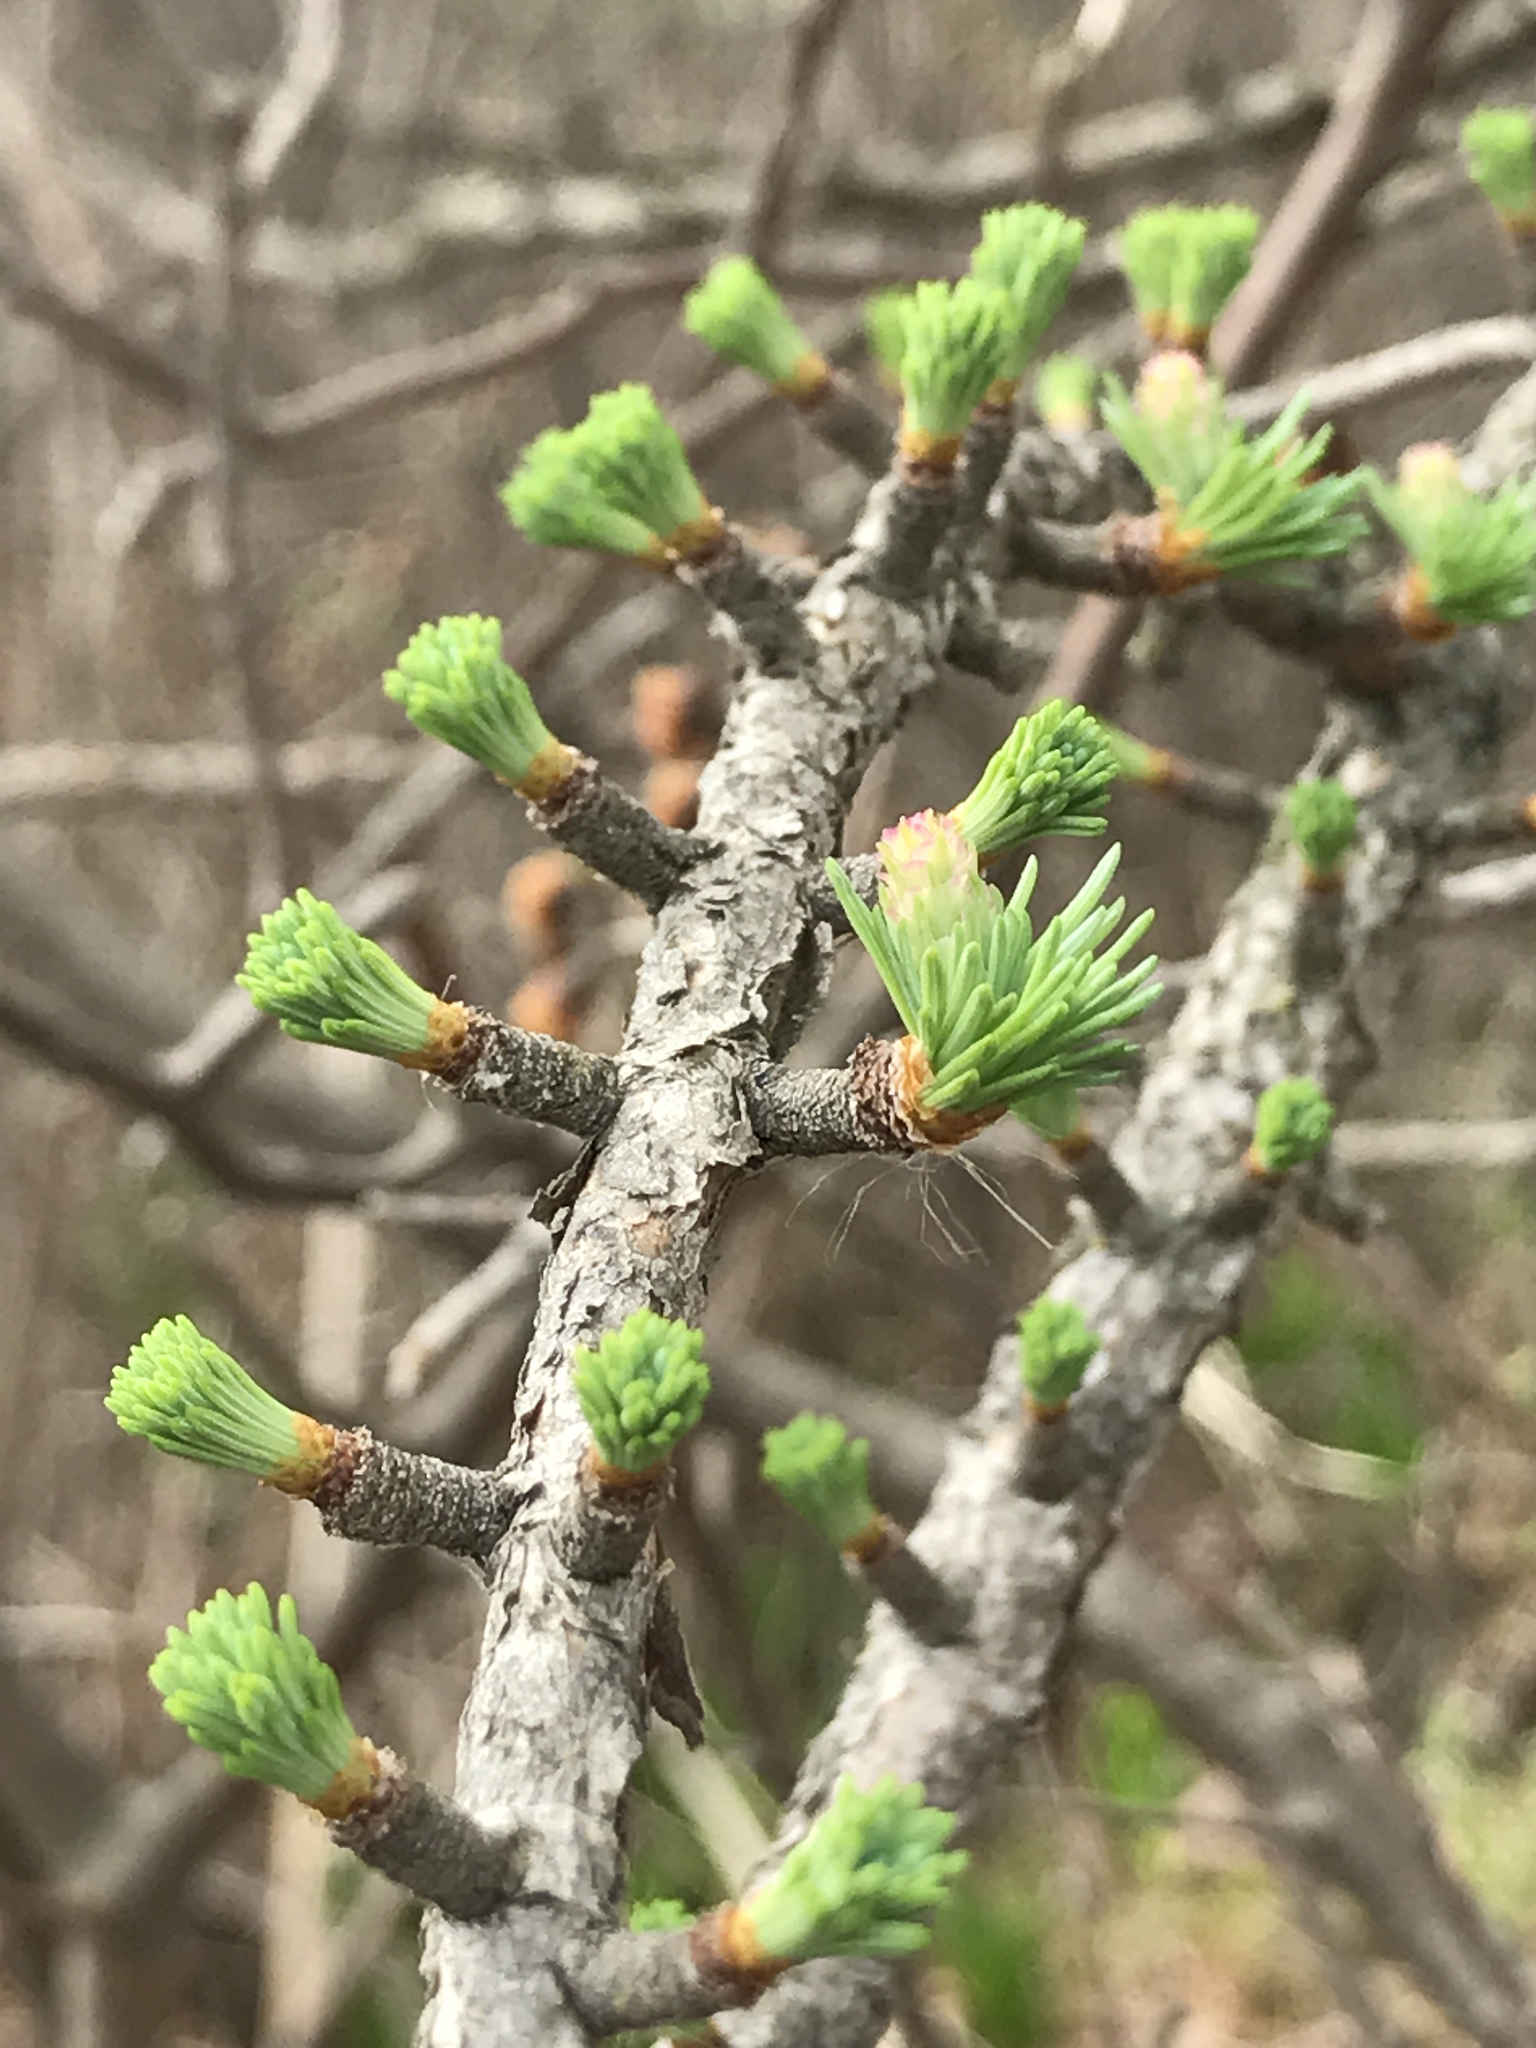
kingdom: Plantae
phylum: Tracheophyta
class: Pinopsida
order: Pinales
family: Pinaceae
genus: Larix
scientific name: Larix laricina
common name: American larch
